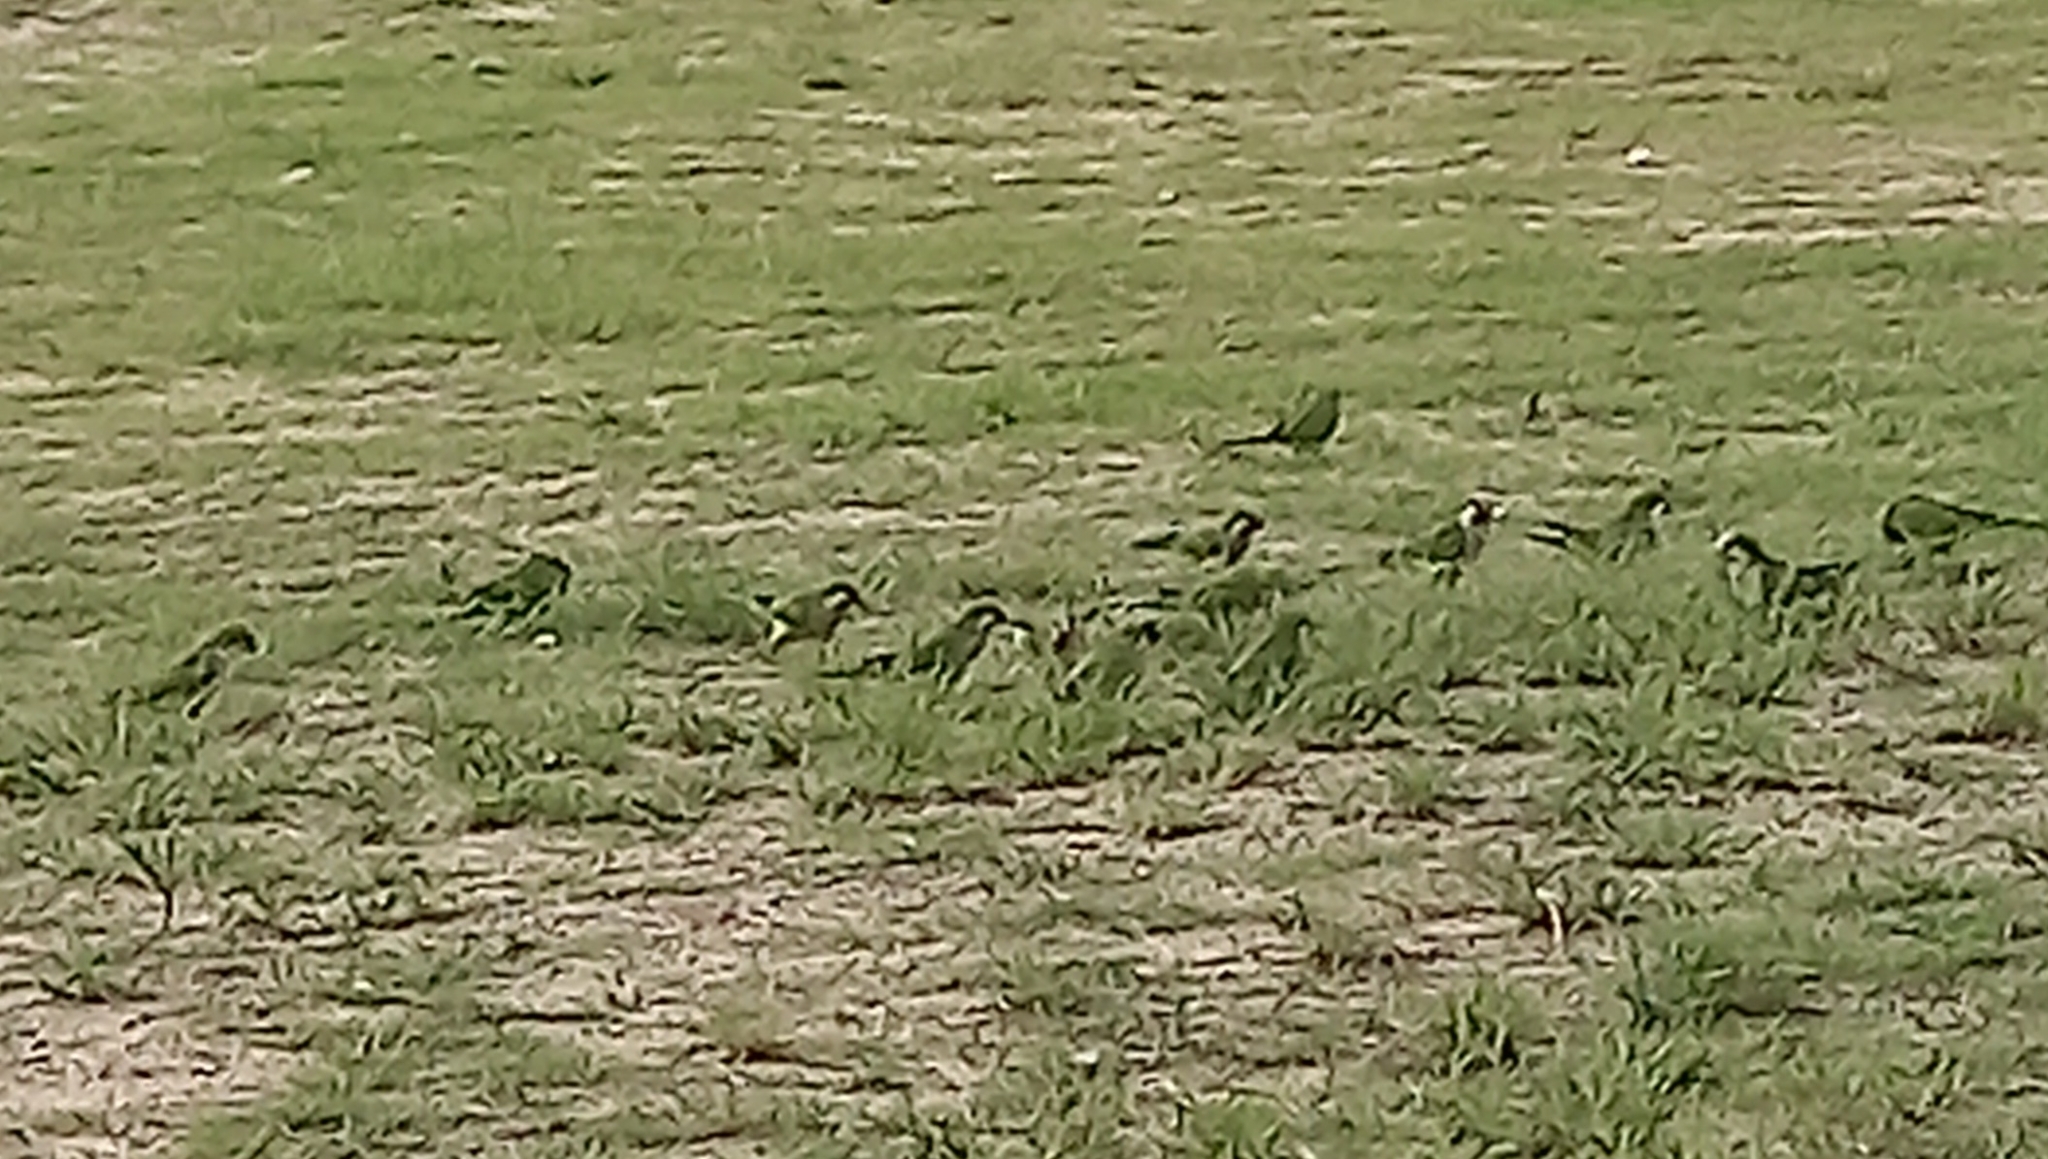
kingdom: Animalia
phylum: Chordata
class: Aves
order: Psittaciformes
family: Psittacidae
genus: Myiopsitta
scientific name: Myiopsitta monachus
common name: Monk parakeet
